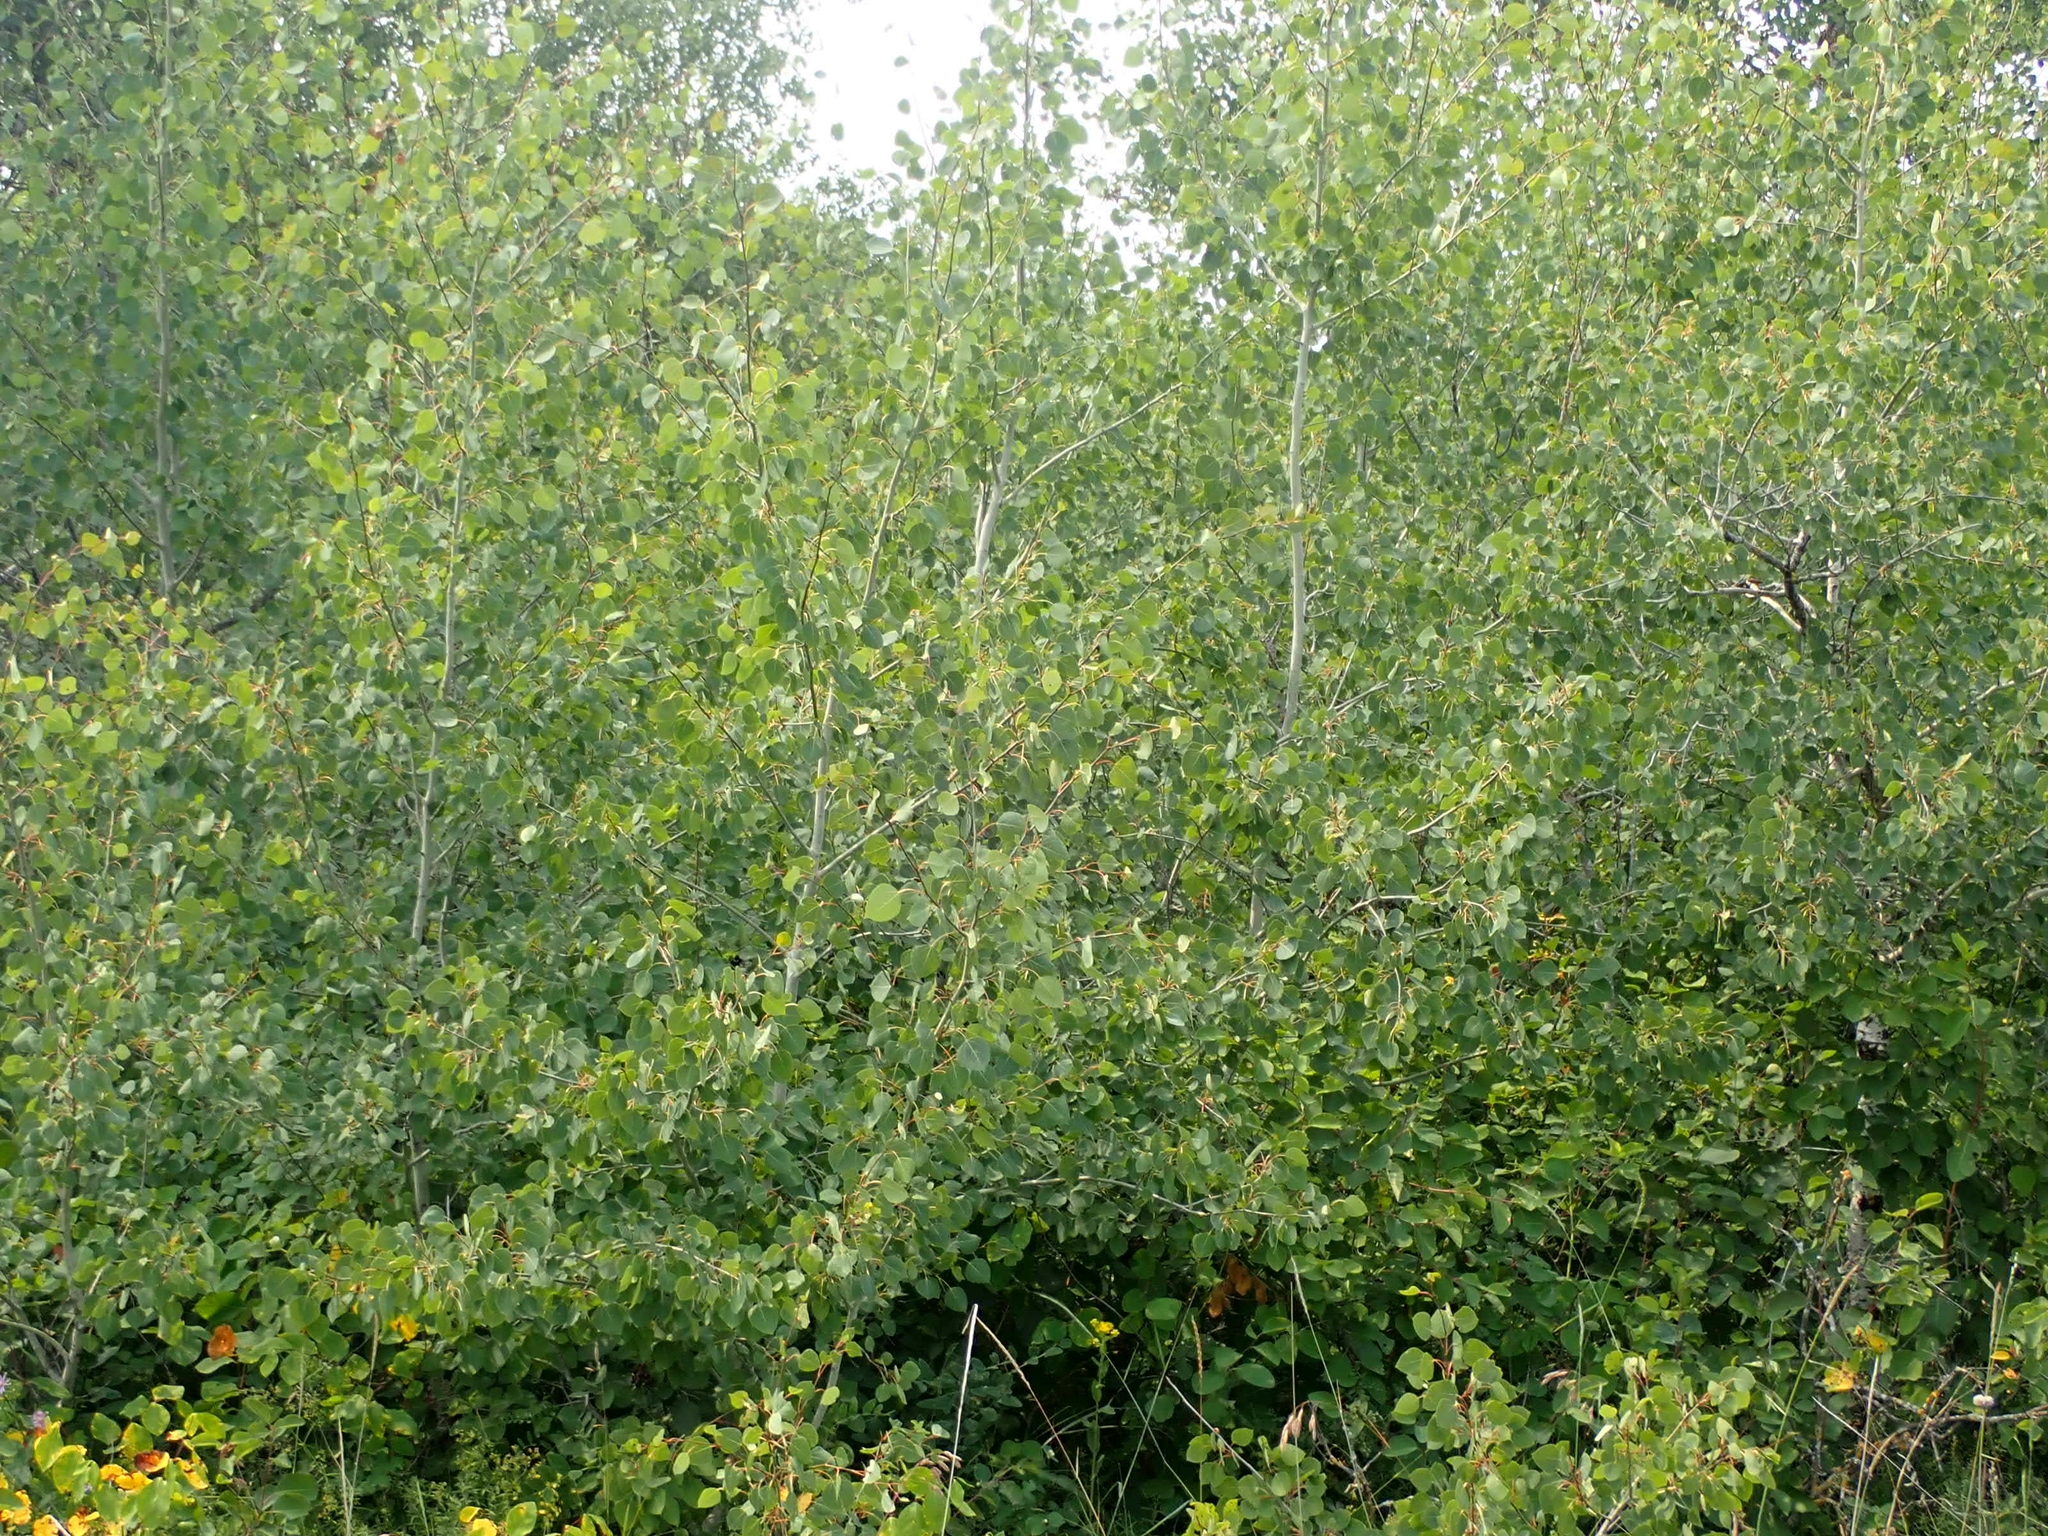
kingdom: Plantae
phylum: Tracheophyta
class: Magnoliopsida
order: Malpighiales
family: Salicaceae
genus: Populus
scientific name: Populus tremuloides
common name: Quaking aspen
